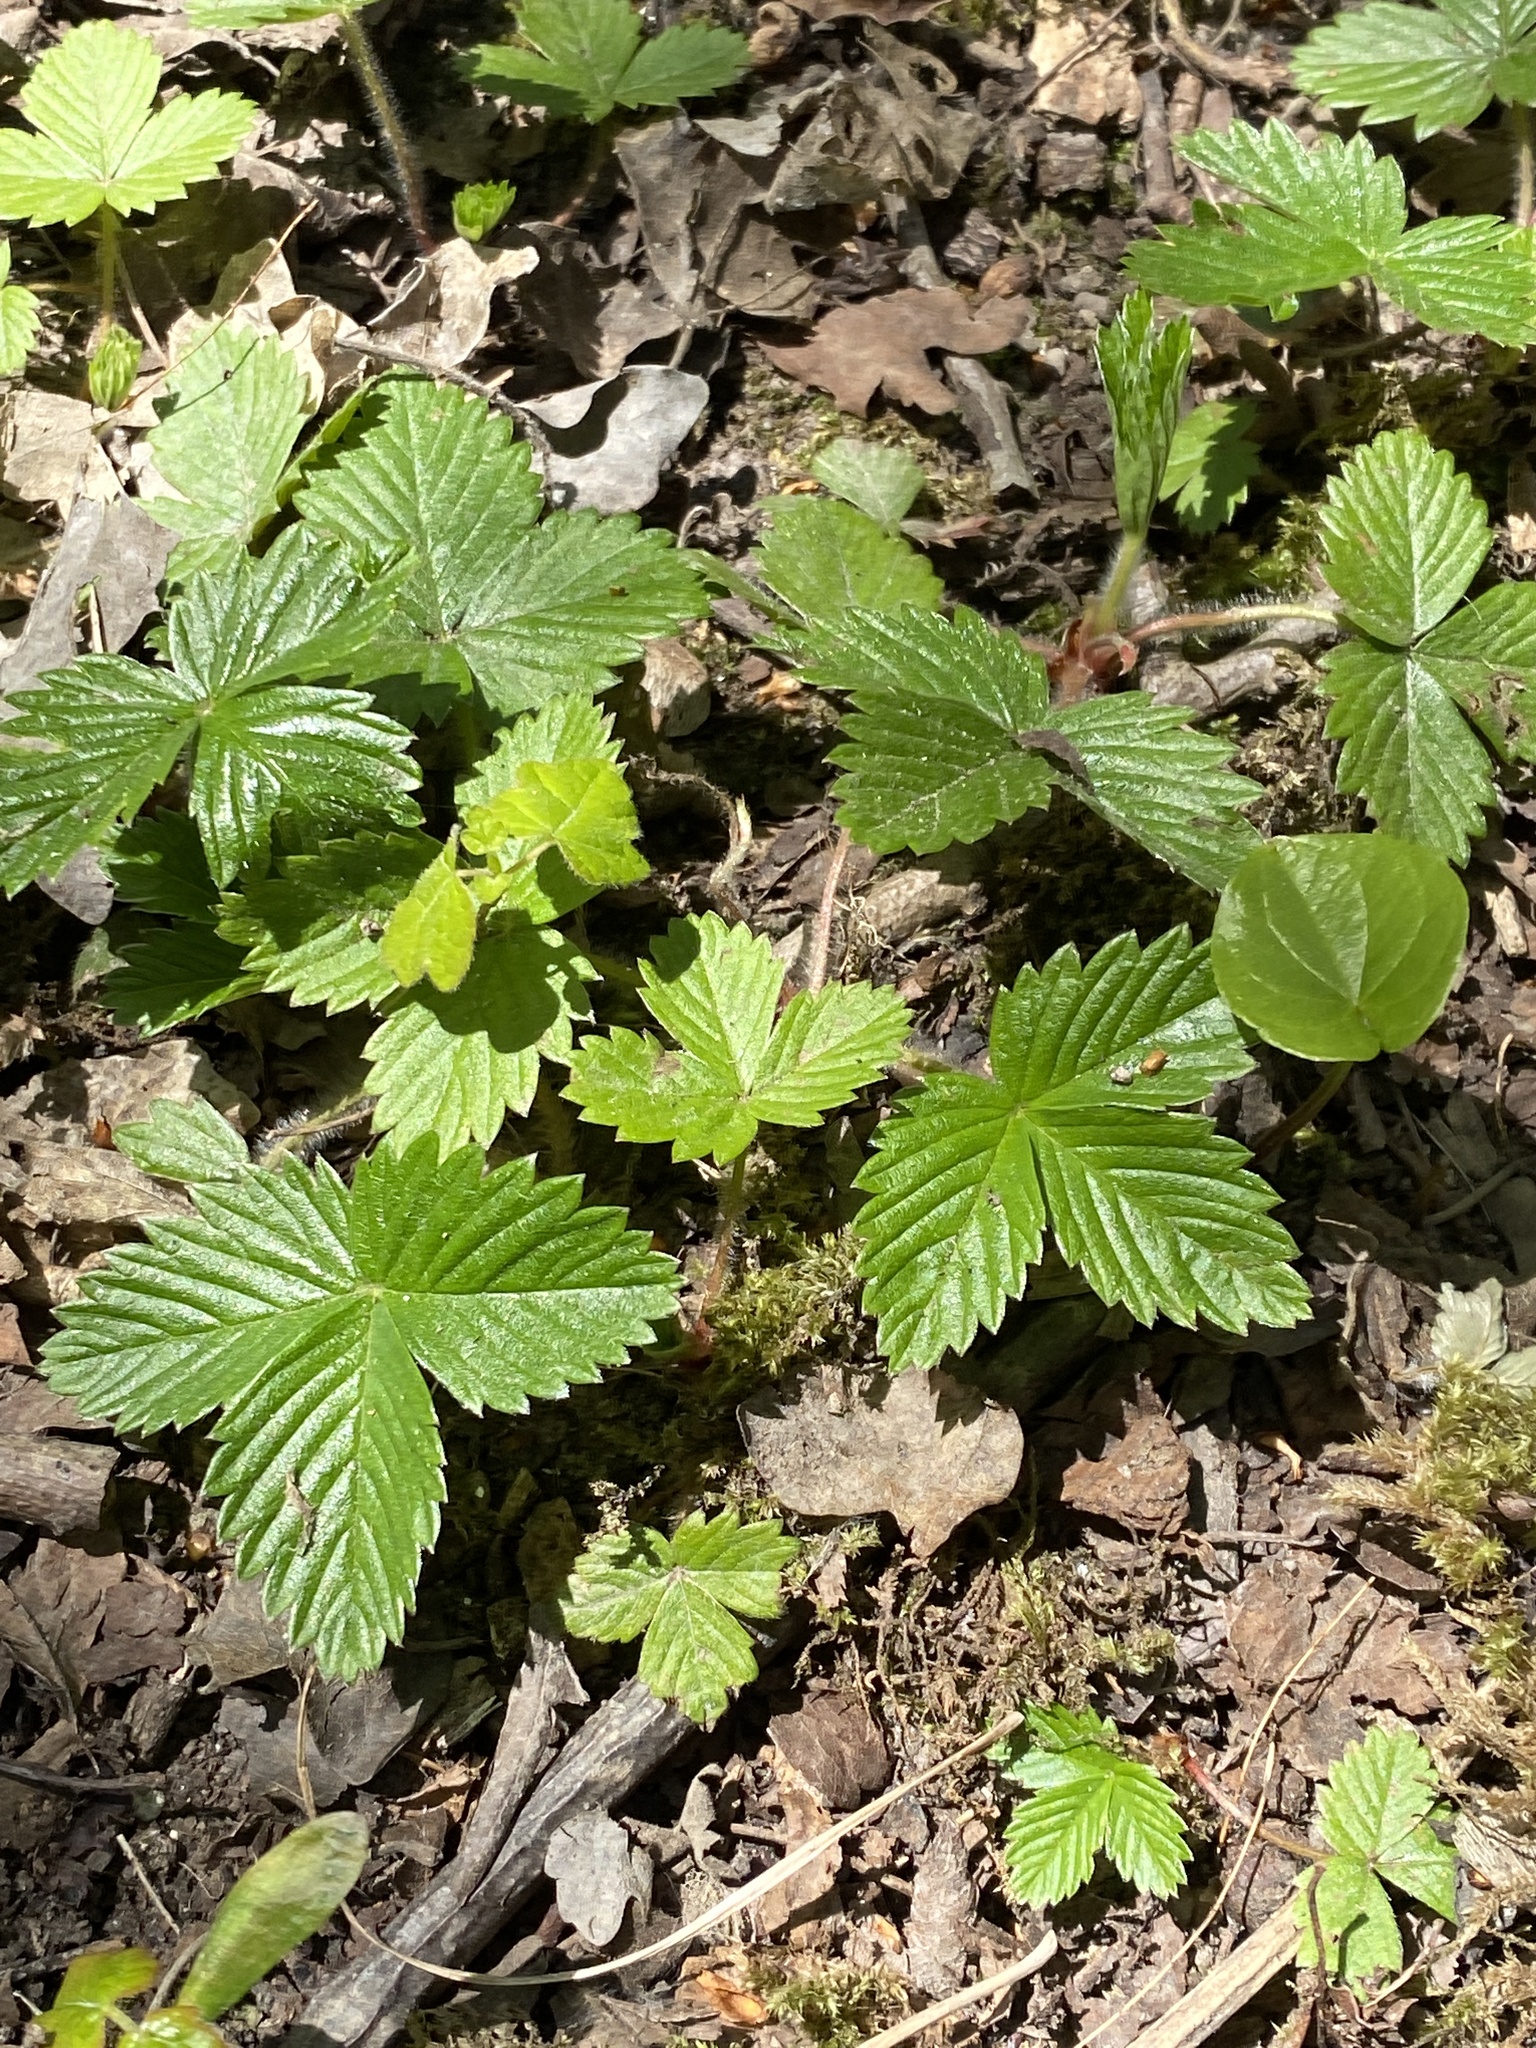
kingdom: Plantae
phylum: Tracheophyta
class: Magnoliopsida
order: Rosales
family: Rosaceae
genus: Fragaria
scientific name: Fragaria vesca
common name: Wild strawberry
